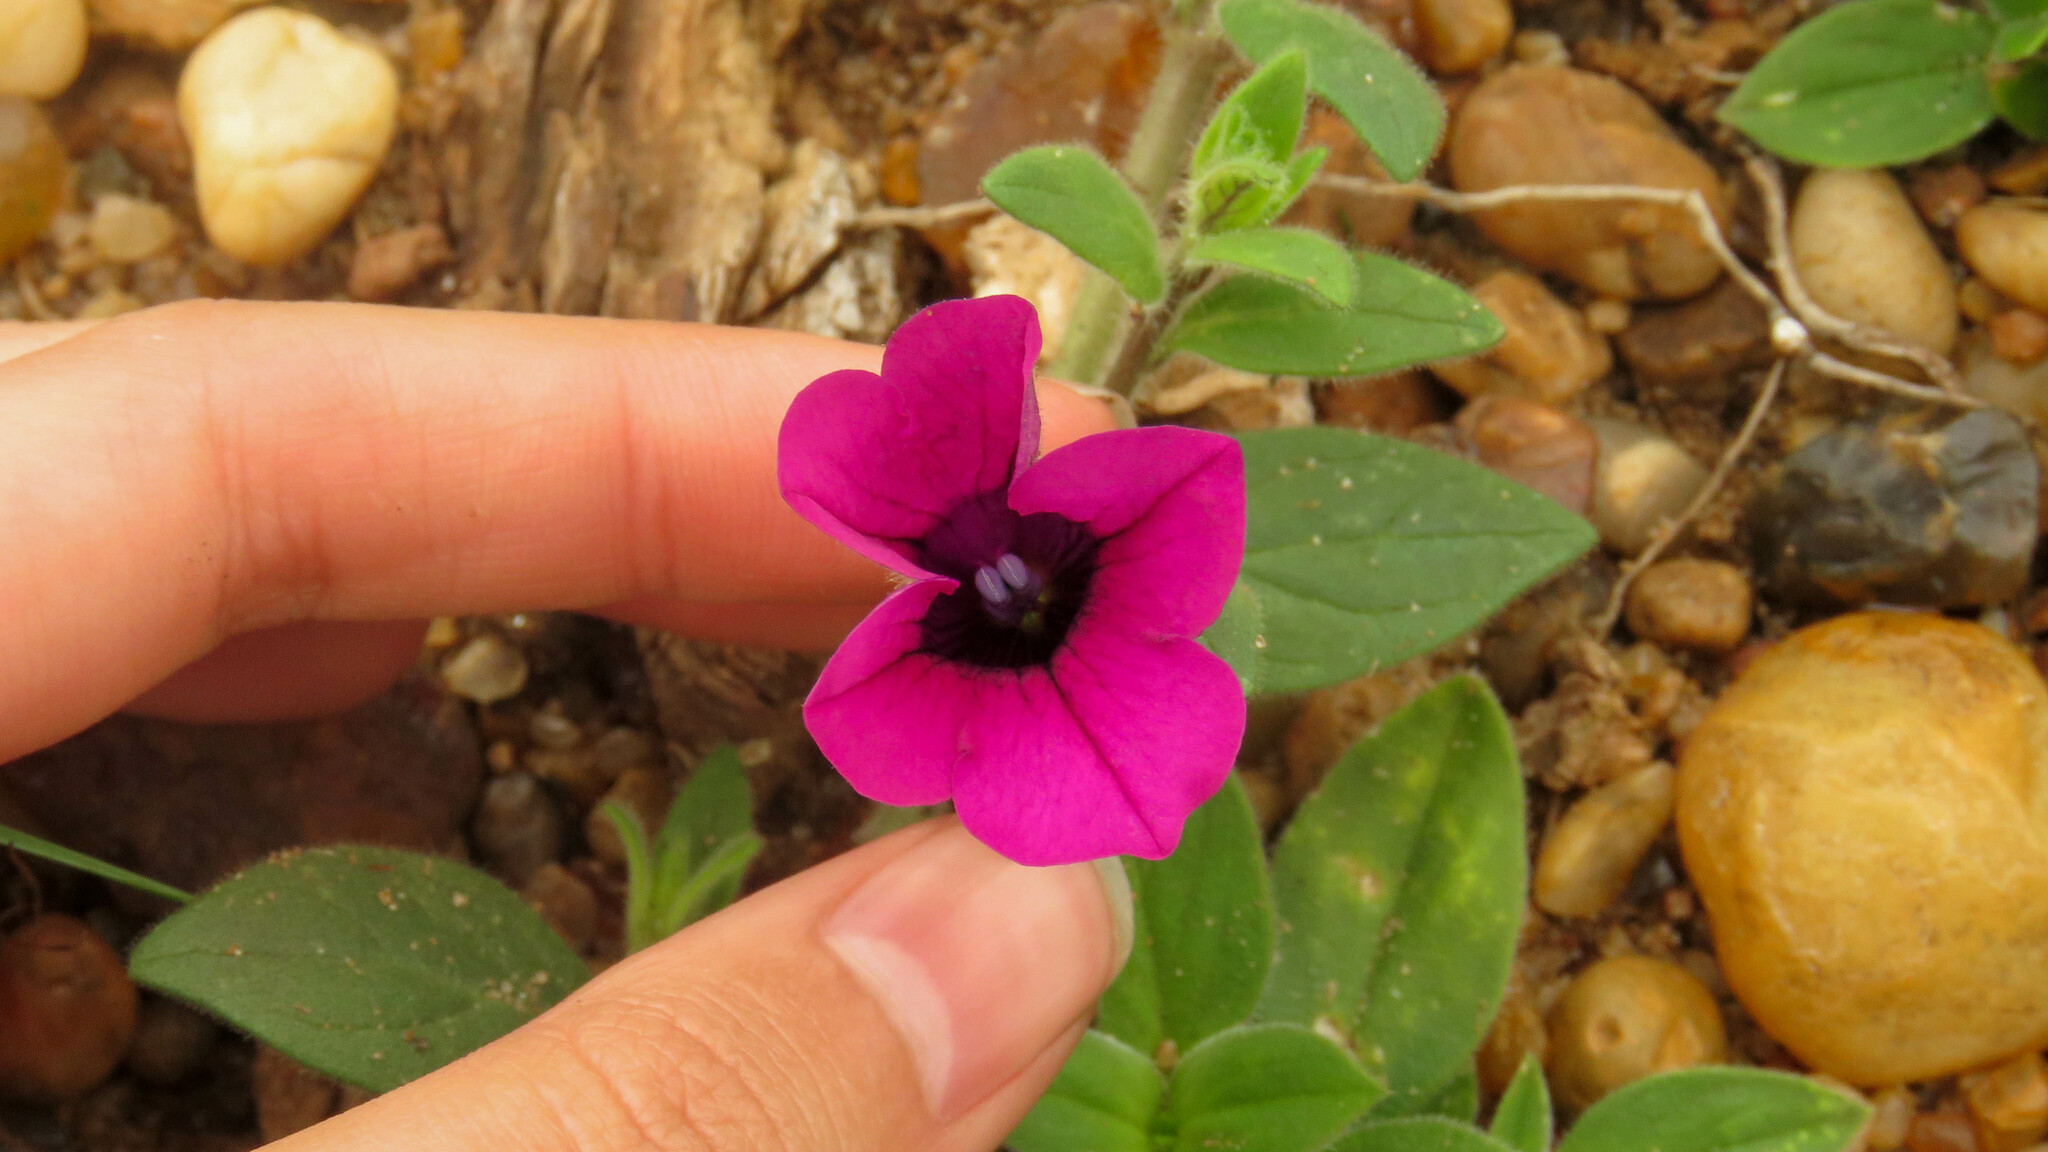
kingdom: Plantae
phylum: Tracheophyta
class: Magnoliopsida
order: Solanales
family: Solanaceae
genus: Petunia
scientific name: Petunia integrifolia
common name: Violet-flower petunia
